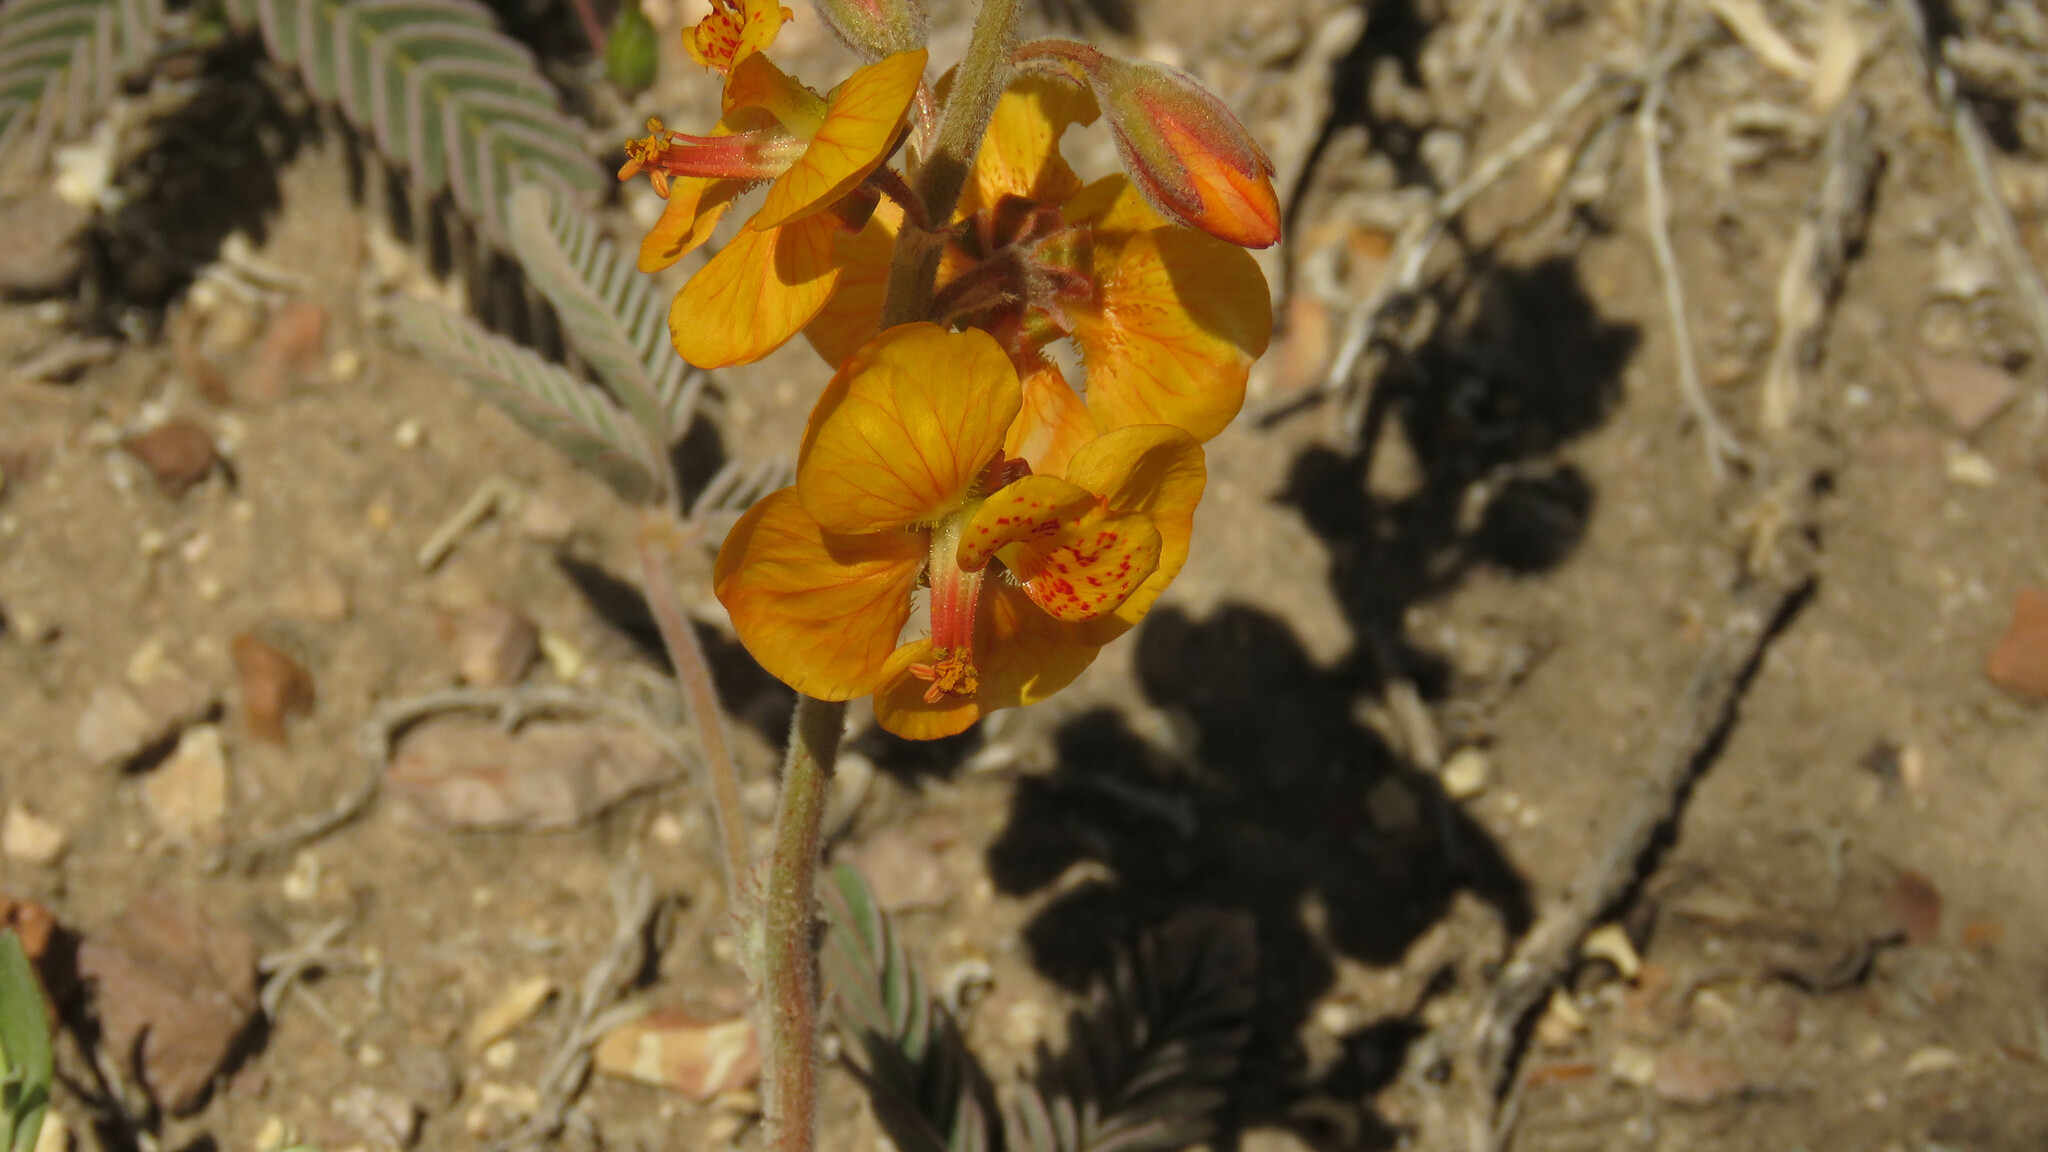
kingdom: Plantae
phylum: Tracheophyta
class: Magnoliopsida
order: Fabales
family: Fabaceae
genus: Hoffmannseggia
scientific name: Hoffmannseggia trifoliata
